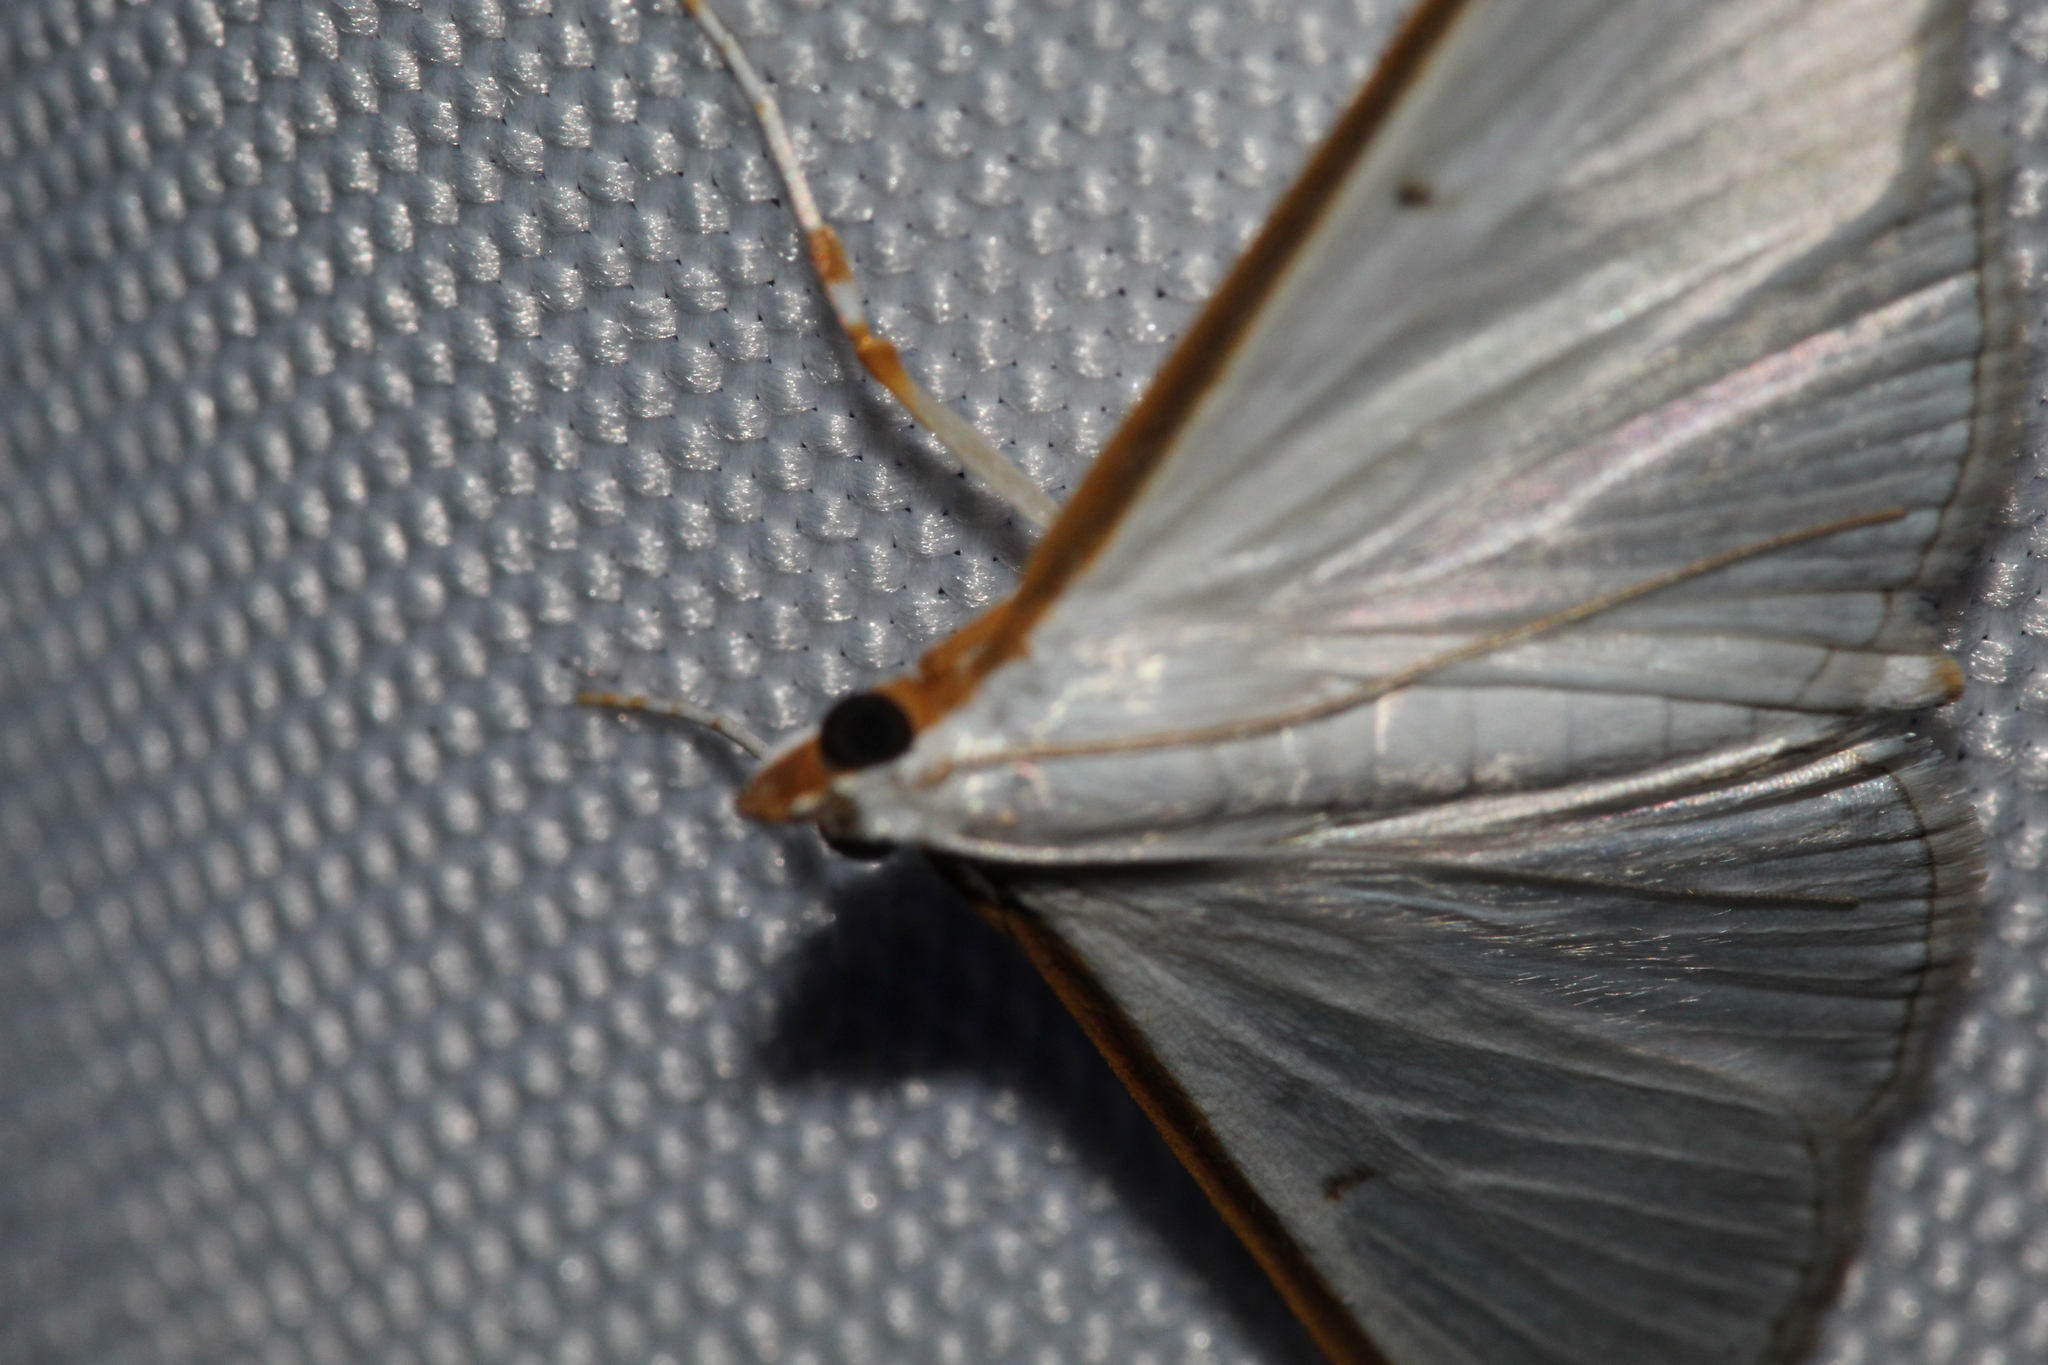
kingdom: Animalia
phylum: Arthropoda
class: Insecta
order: Lepidoptera
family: Crambidae
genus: Diaphania
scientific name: Diaphania costata
